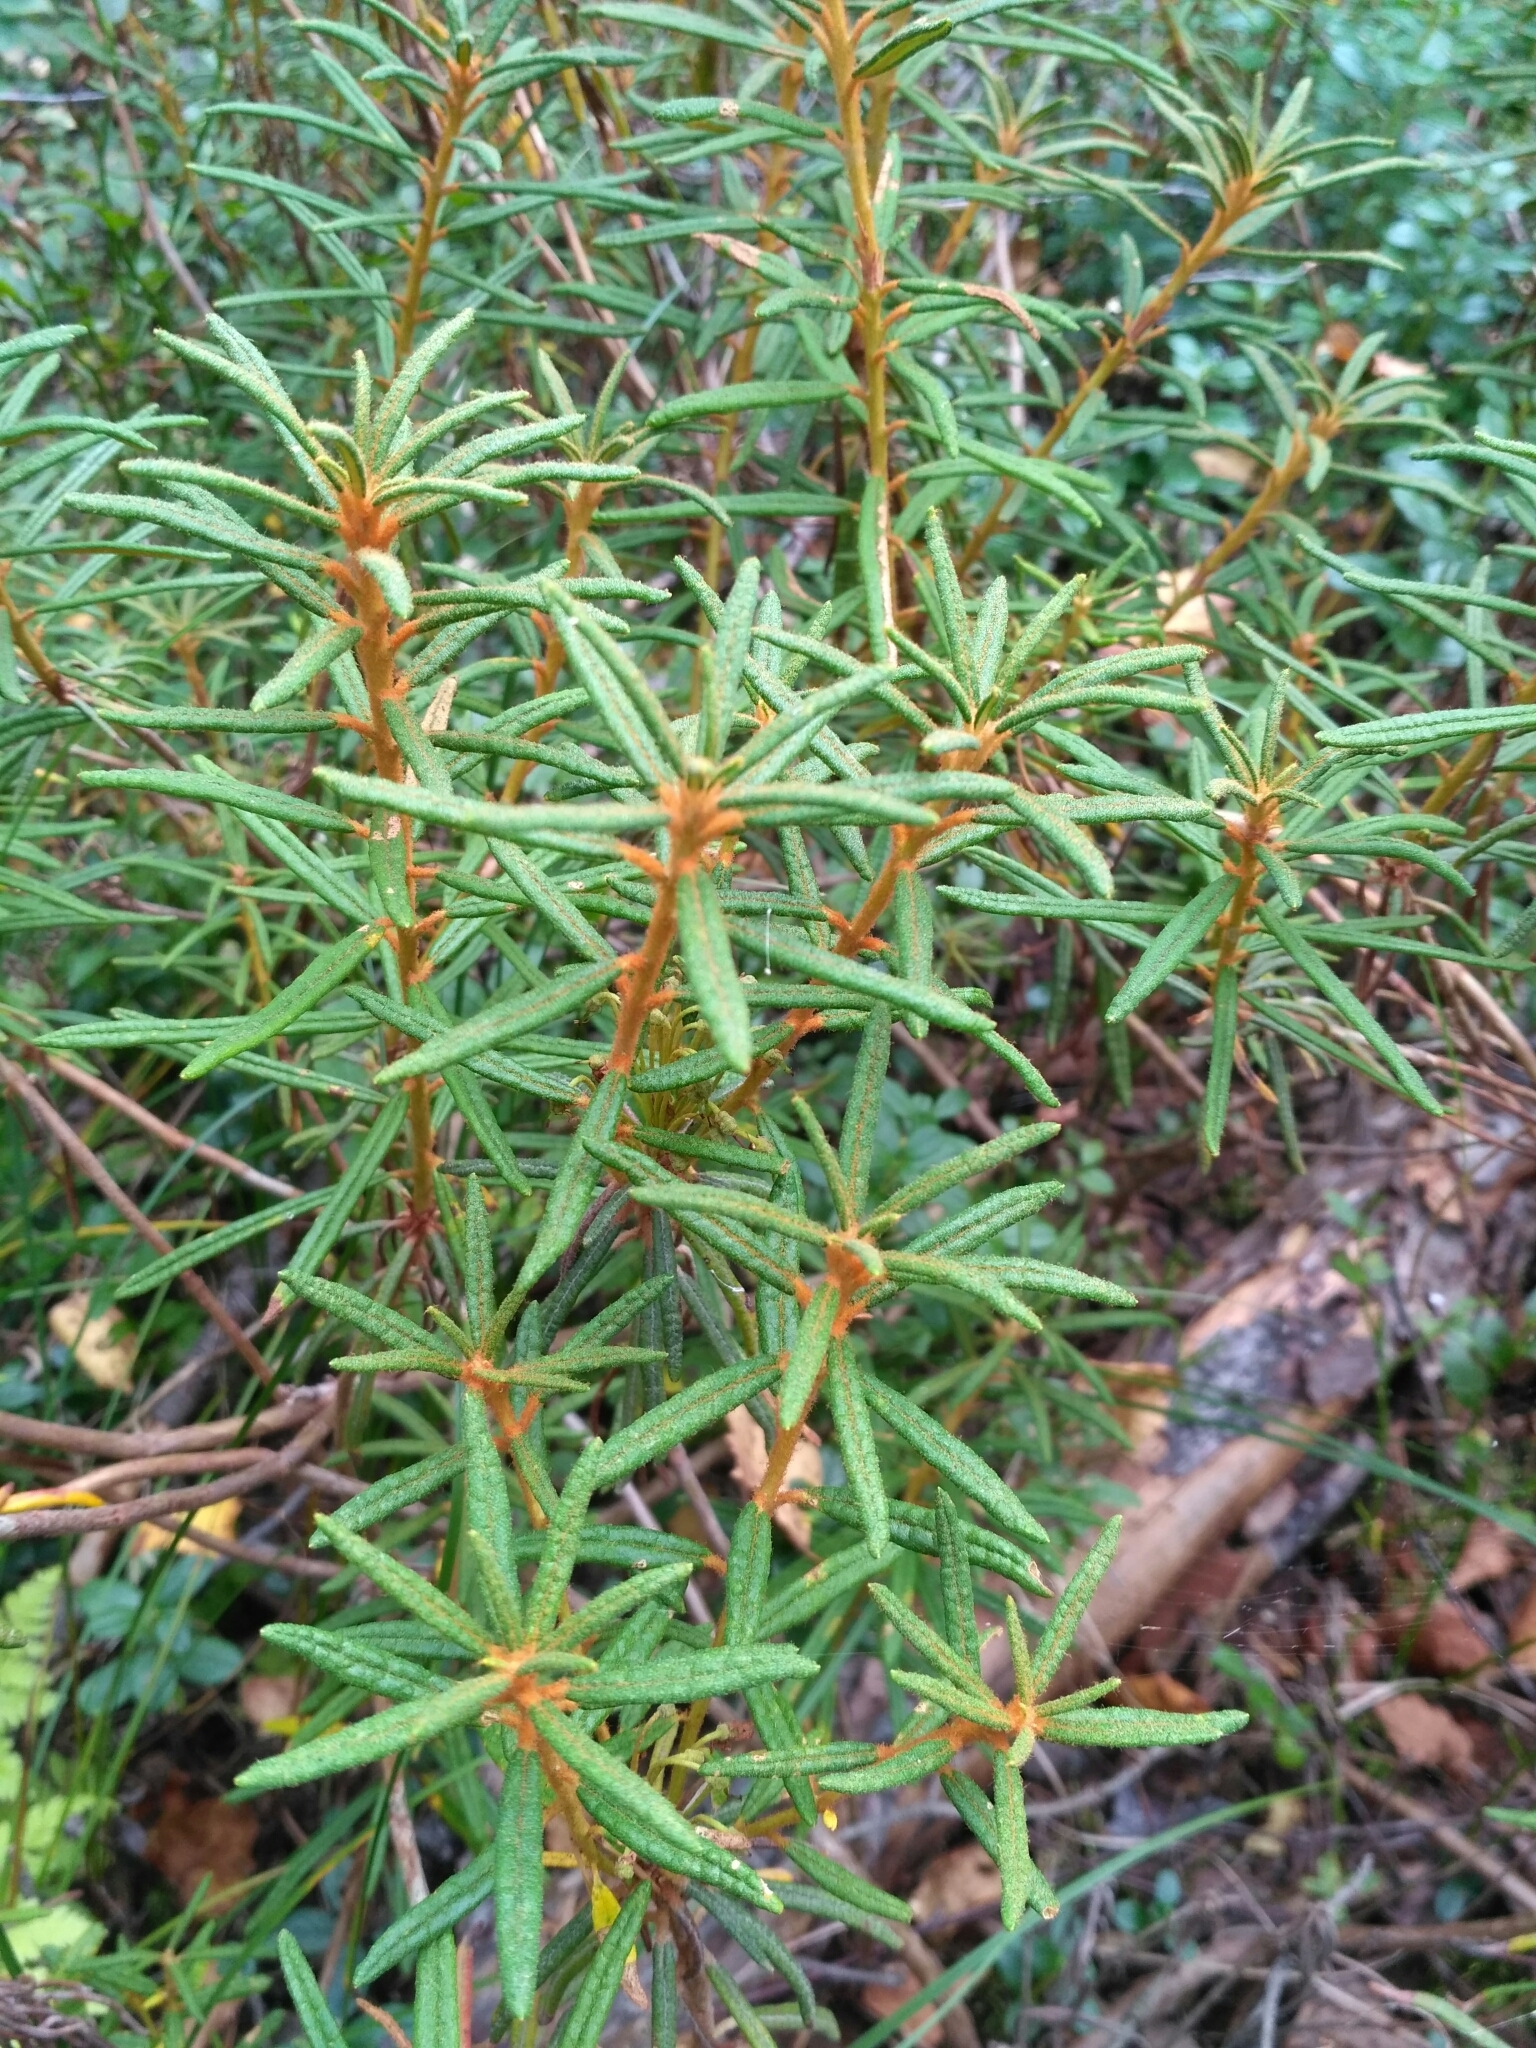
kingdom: Plantae
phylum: Tracheophyta
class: Magnoliopsida
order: Ericales
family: Ericaceae
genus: Rhododendron
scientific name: Rhododendron tomentosum
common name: Marsh labrador tea
